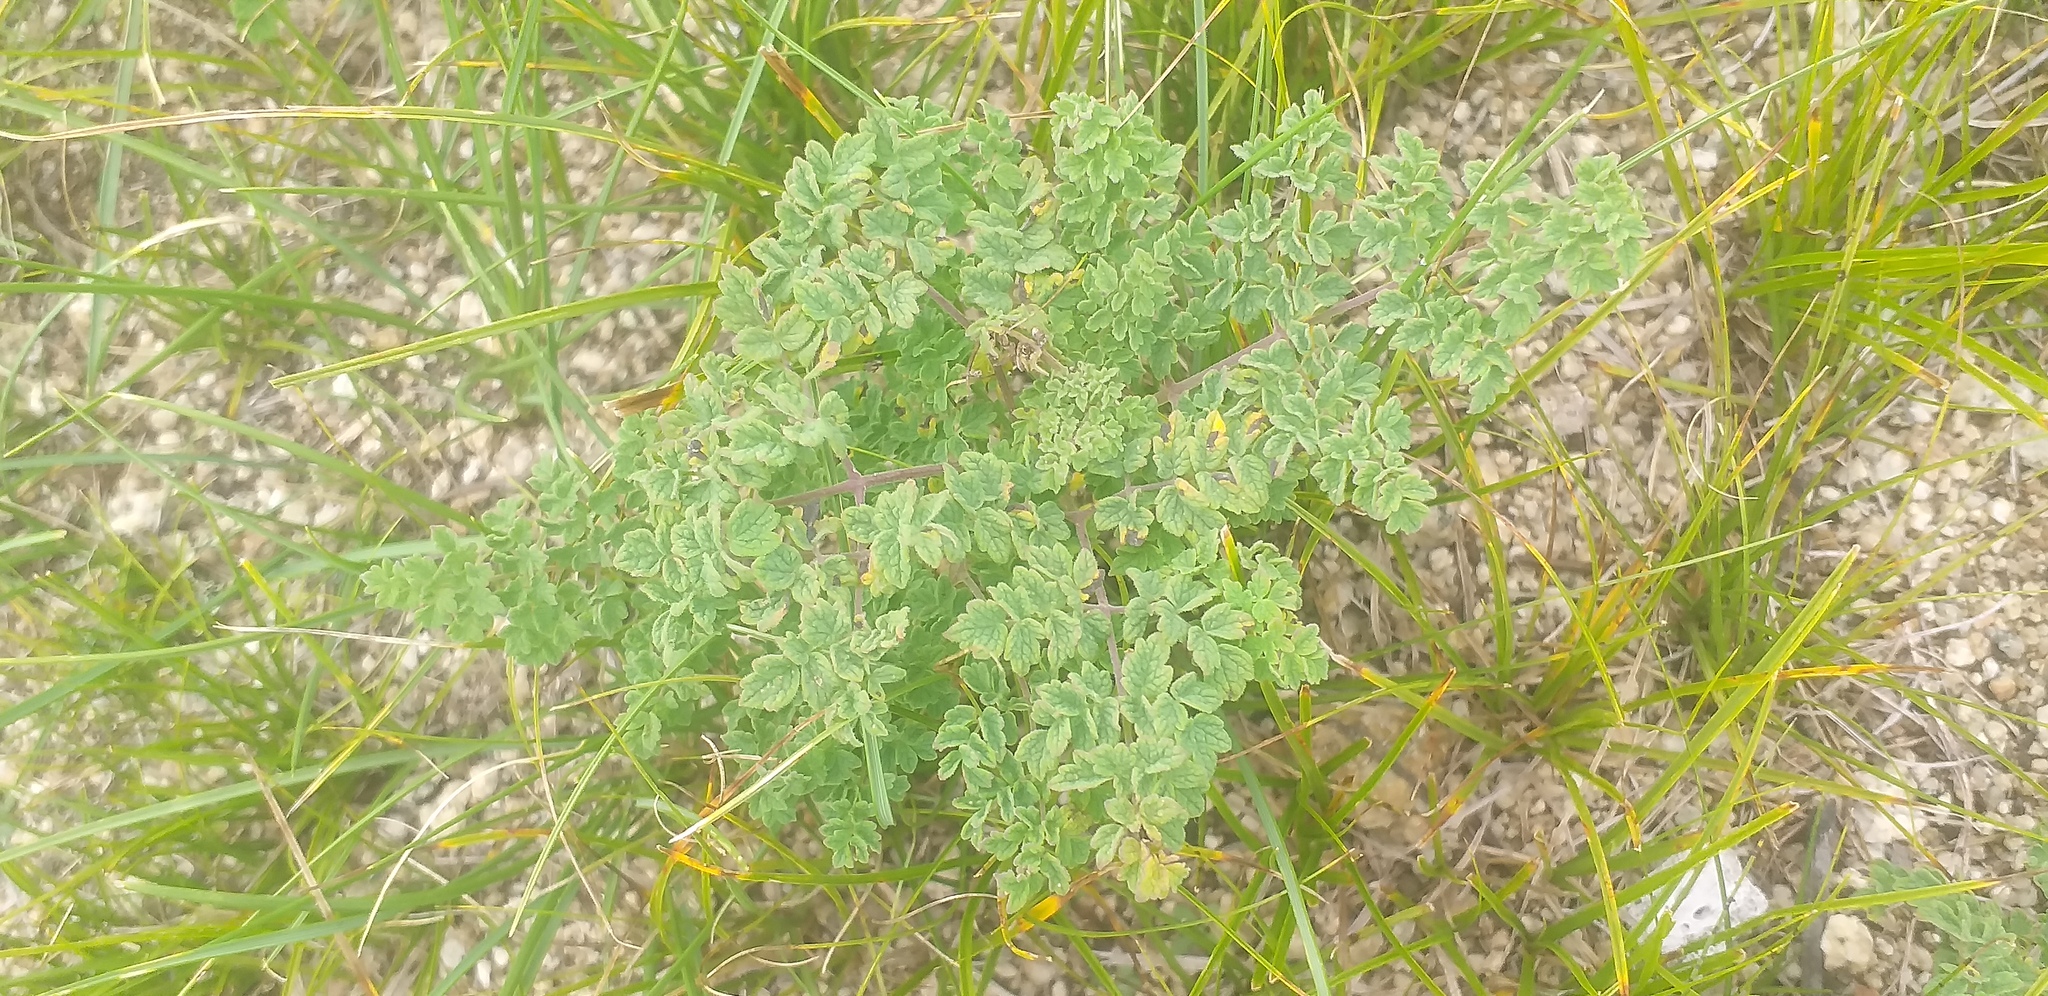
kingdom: Plantae
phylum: Tracheophyta
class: Magnoliopsida
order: Ranunculales
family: Ranunculaceae
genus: Thalictrum
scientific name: Thalictrum minus
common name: Lesser meadow-rue
